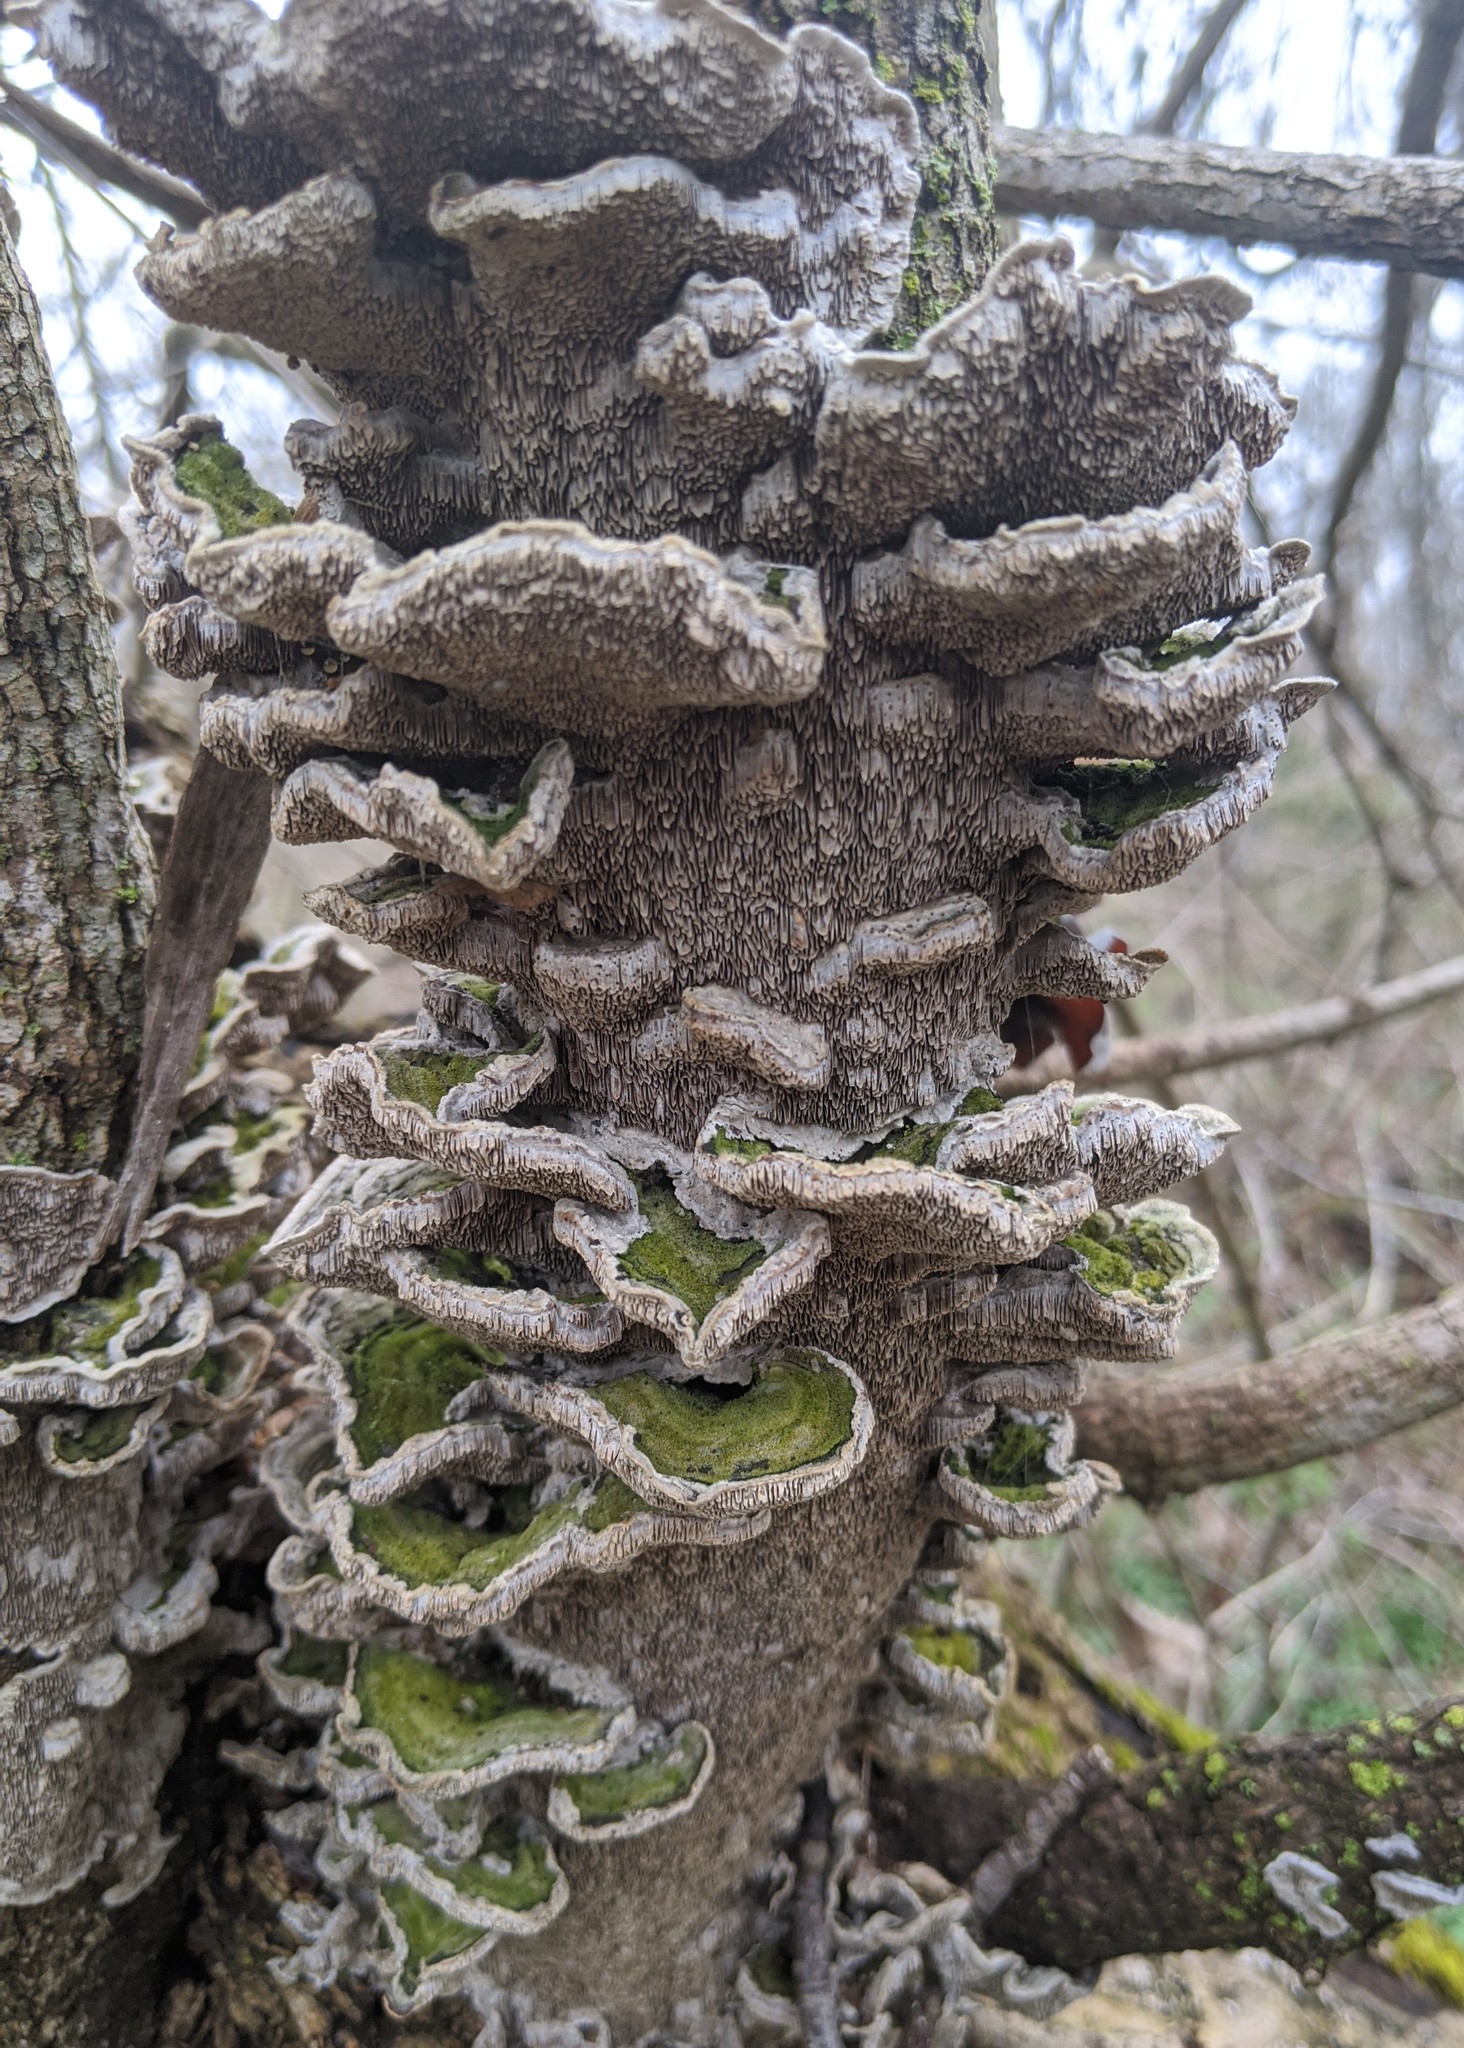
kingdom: Fungi
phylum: Basidiomycota
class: Agaricomycetes
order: Polyporales
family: Cerrenaceae
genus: Cerrena
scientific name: Cerrena unicolor
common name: Mossy maze polypore
